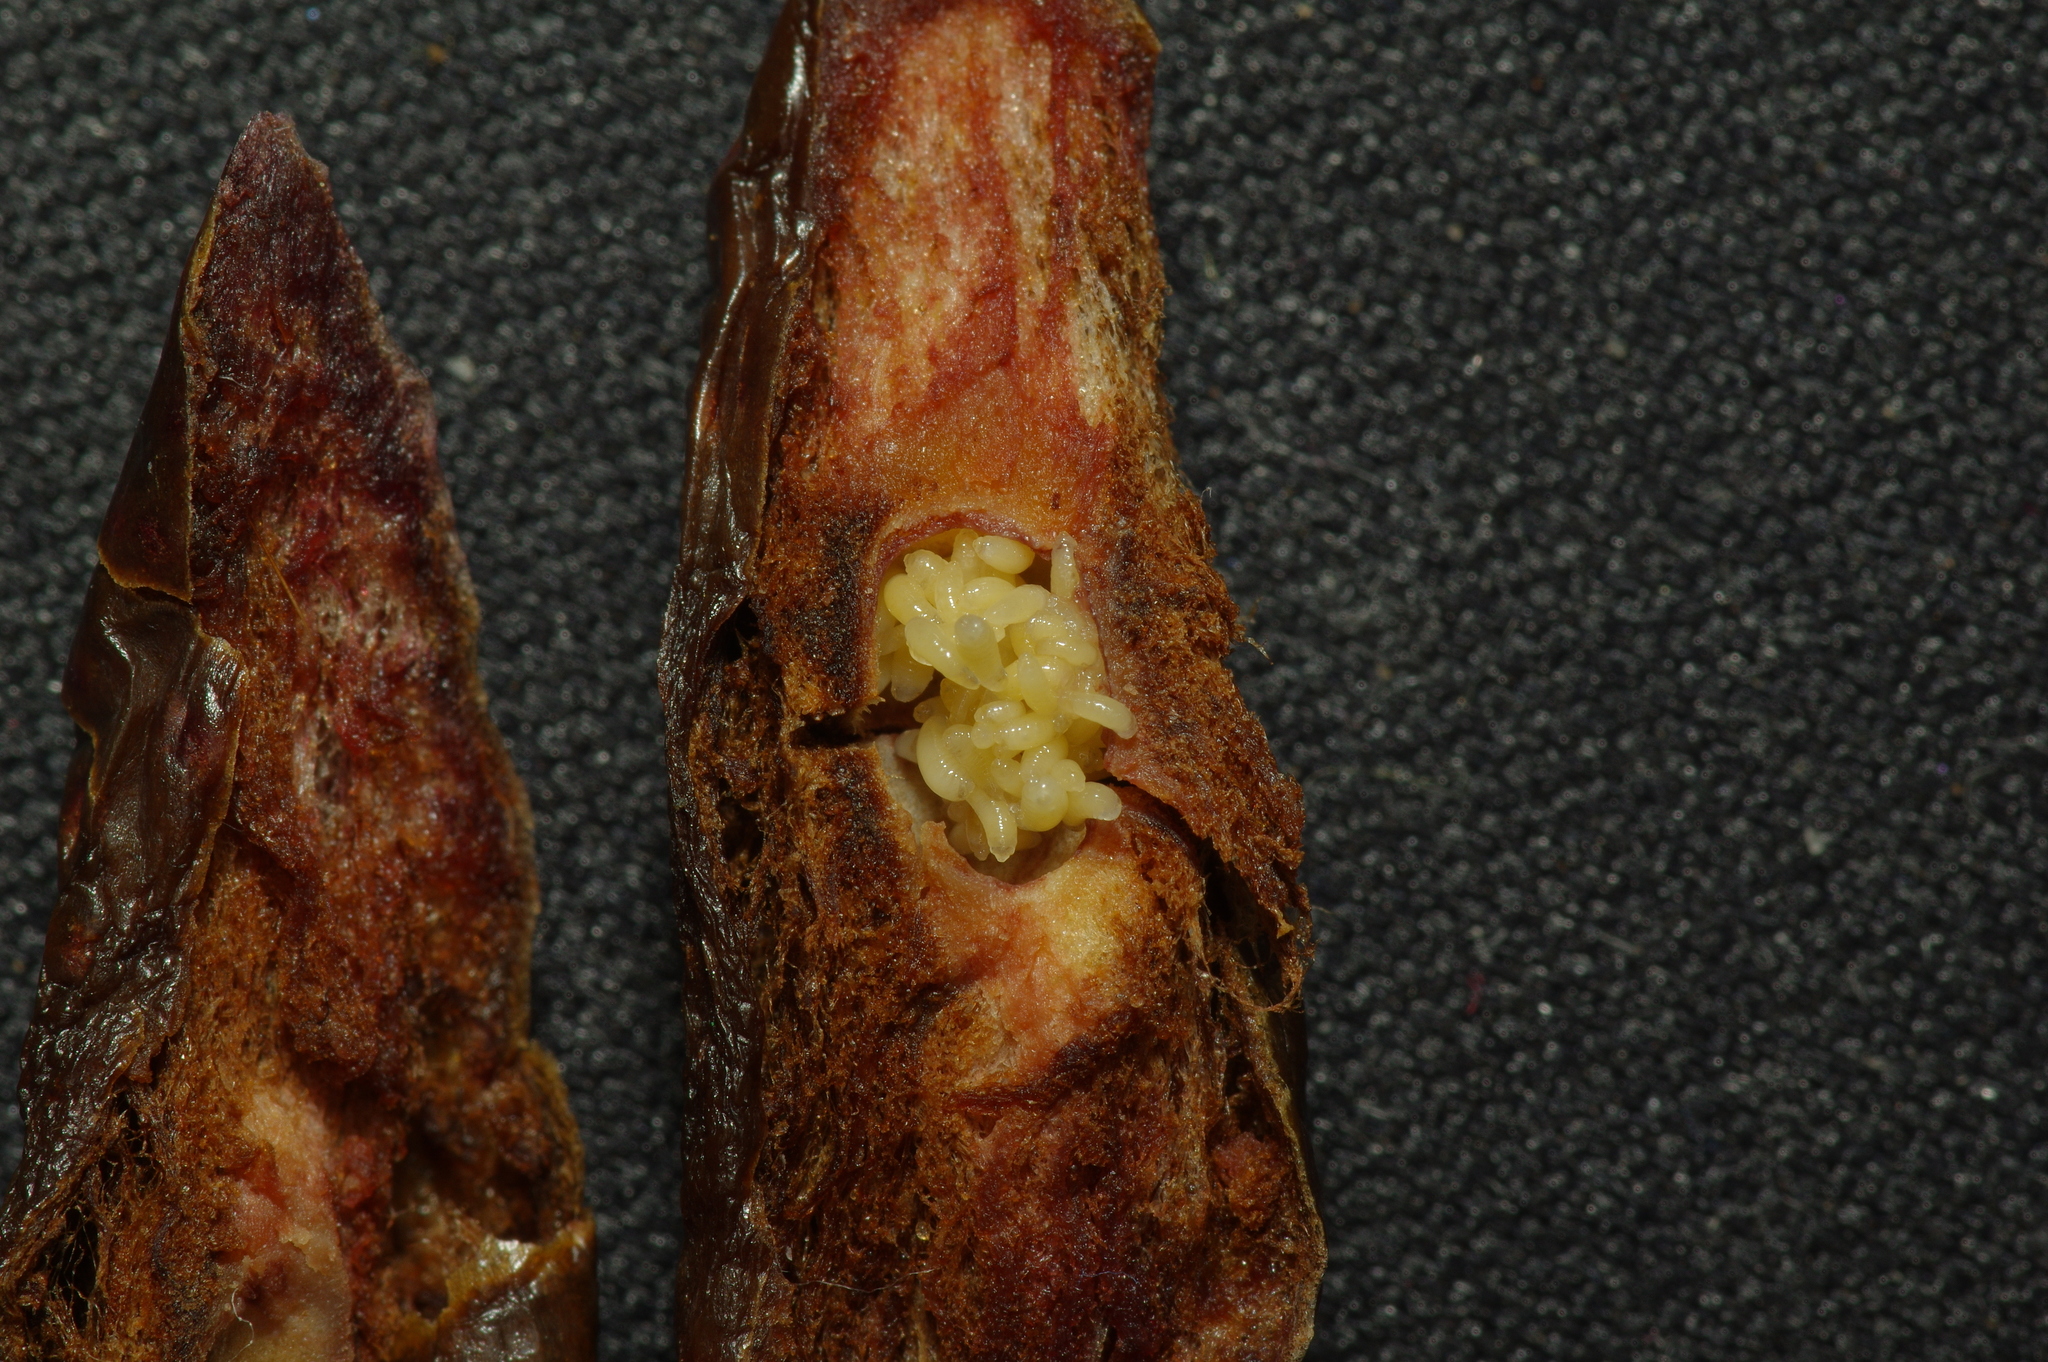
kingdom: Animalia
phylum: Arthropoda
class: Insecta
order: Hymenoptera
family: Cynipidae
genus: Amphibolips
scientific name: Amphibolips
